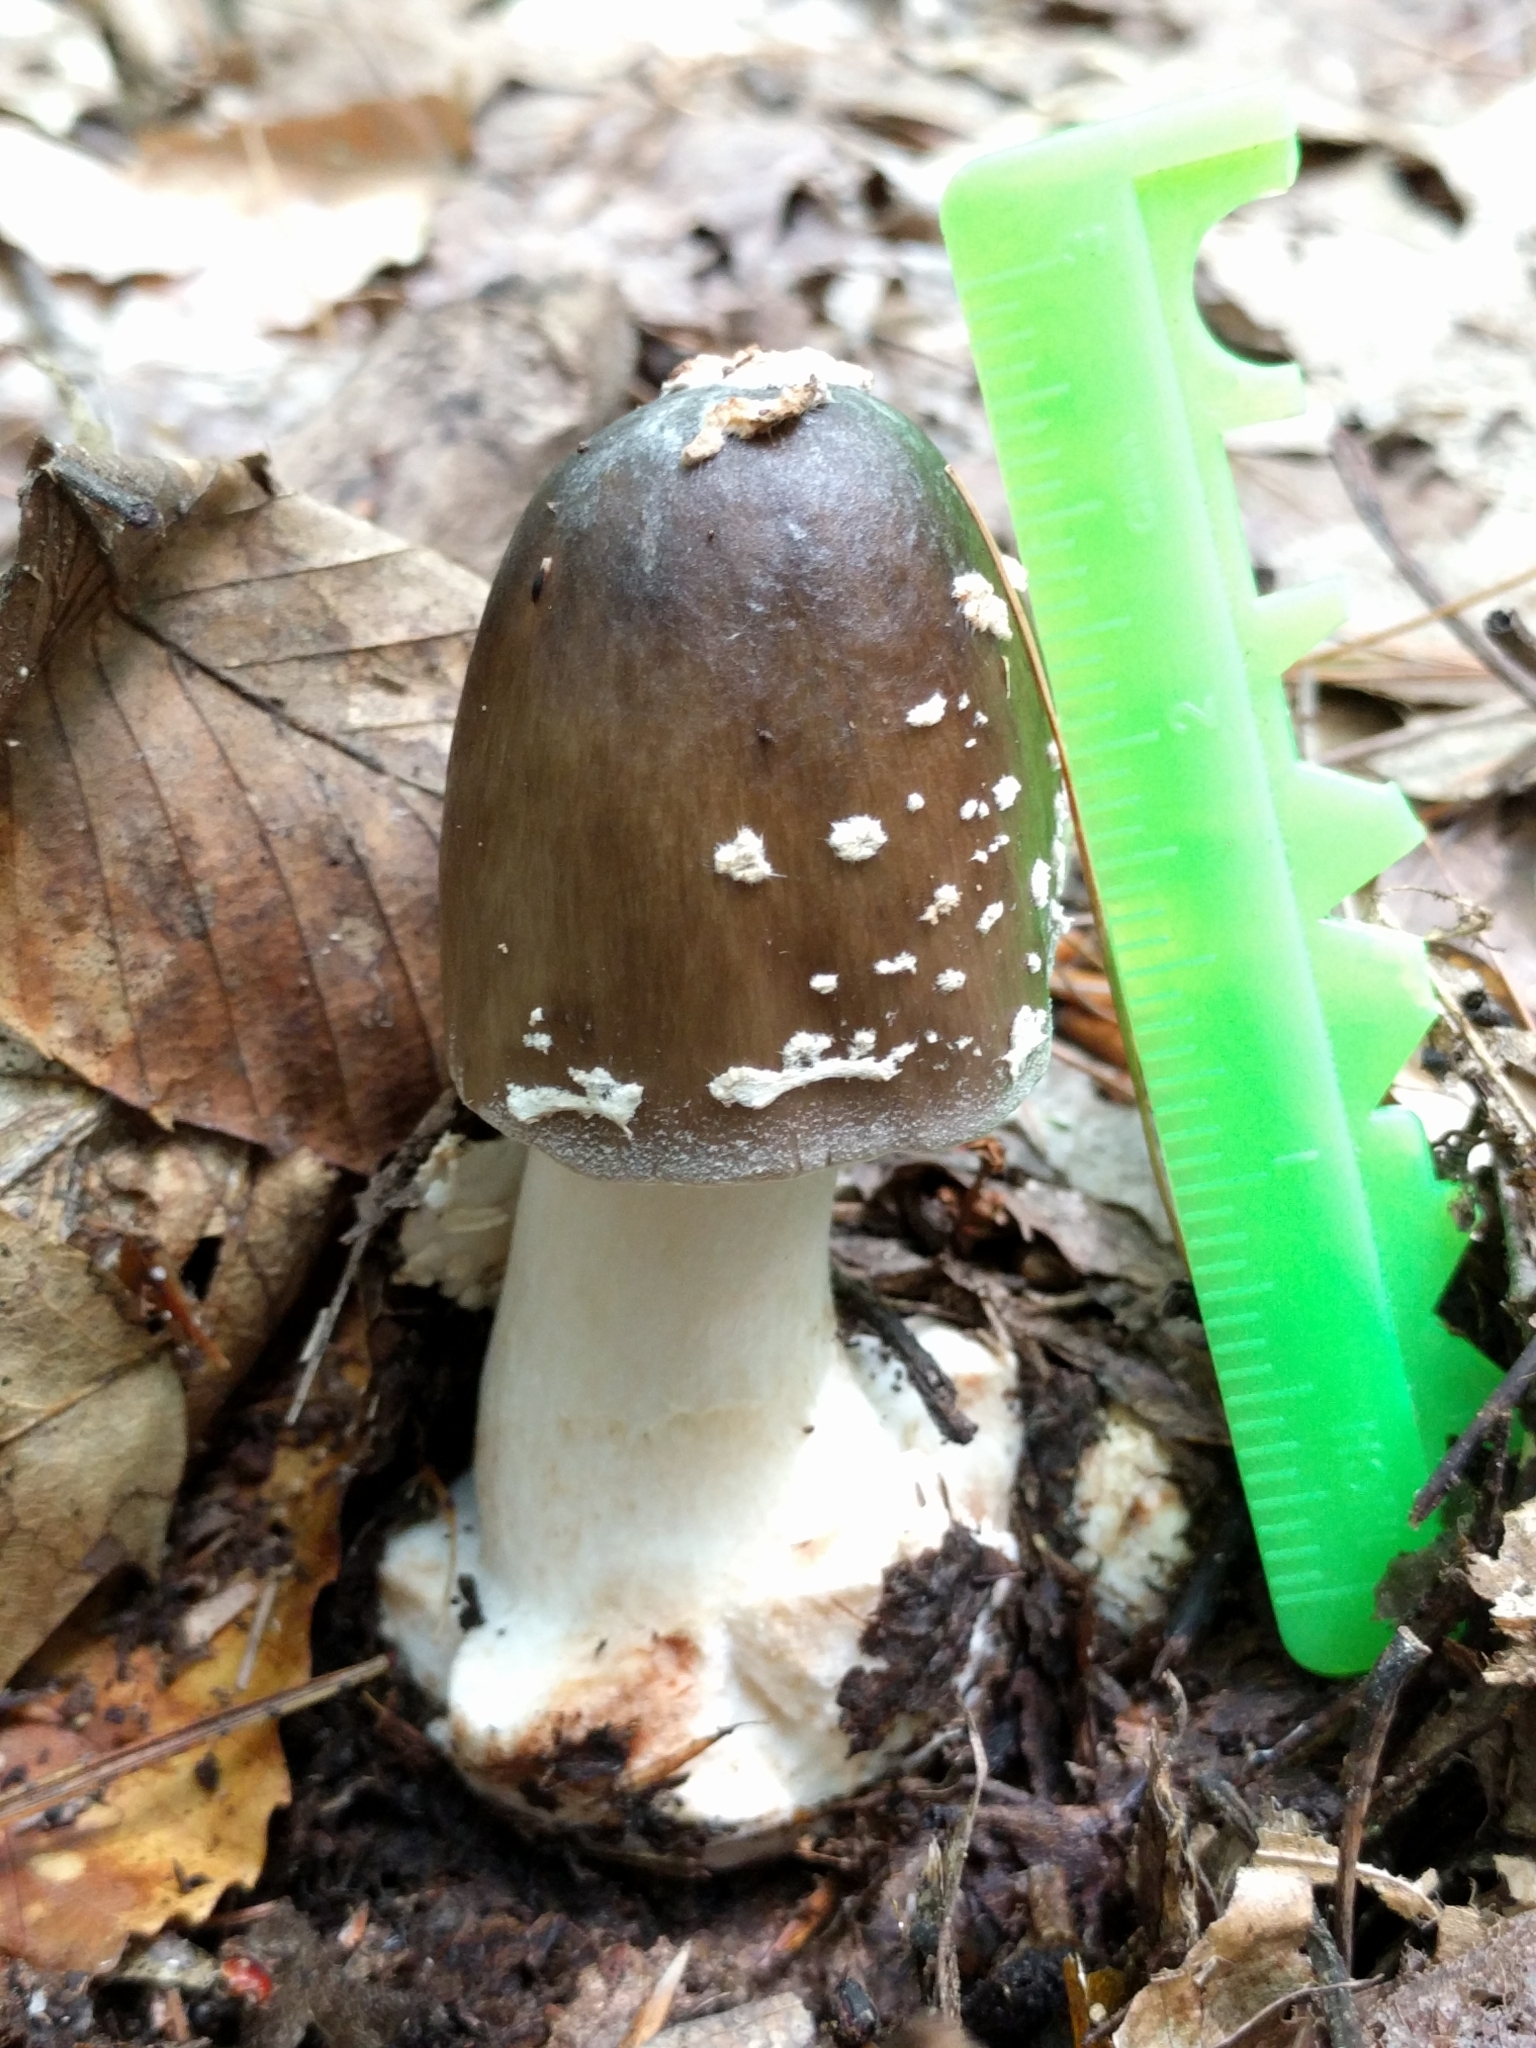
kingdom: Fungi
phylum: Basidiomycota
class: Agaricomycetes
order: Agaricales
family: Amanitaceae
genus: Amanita
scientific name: Amanita brunnescens
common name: Brown american star-footed amanita
